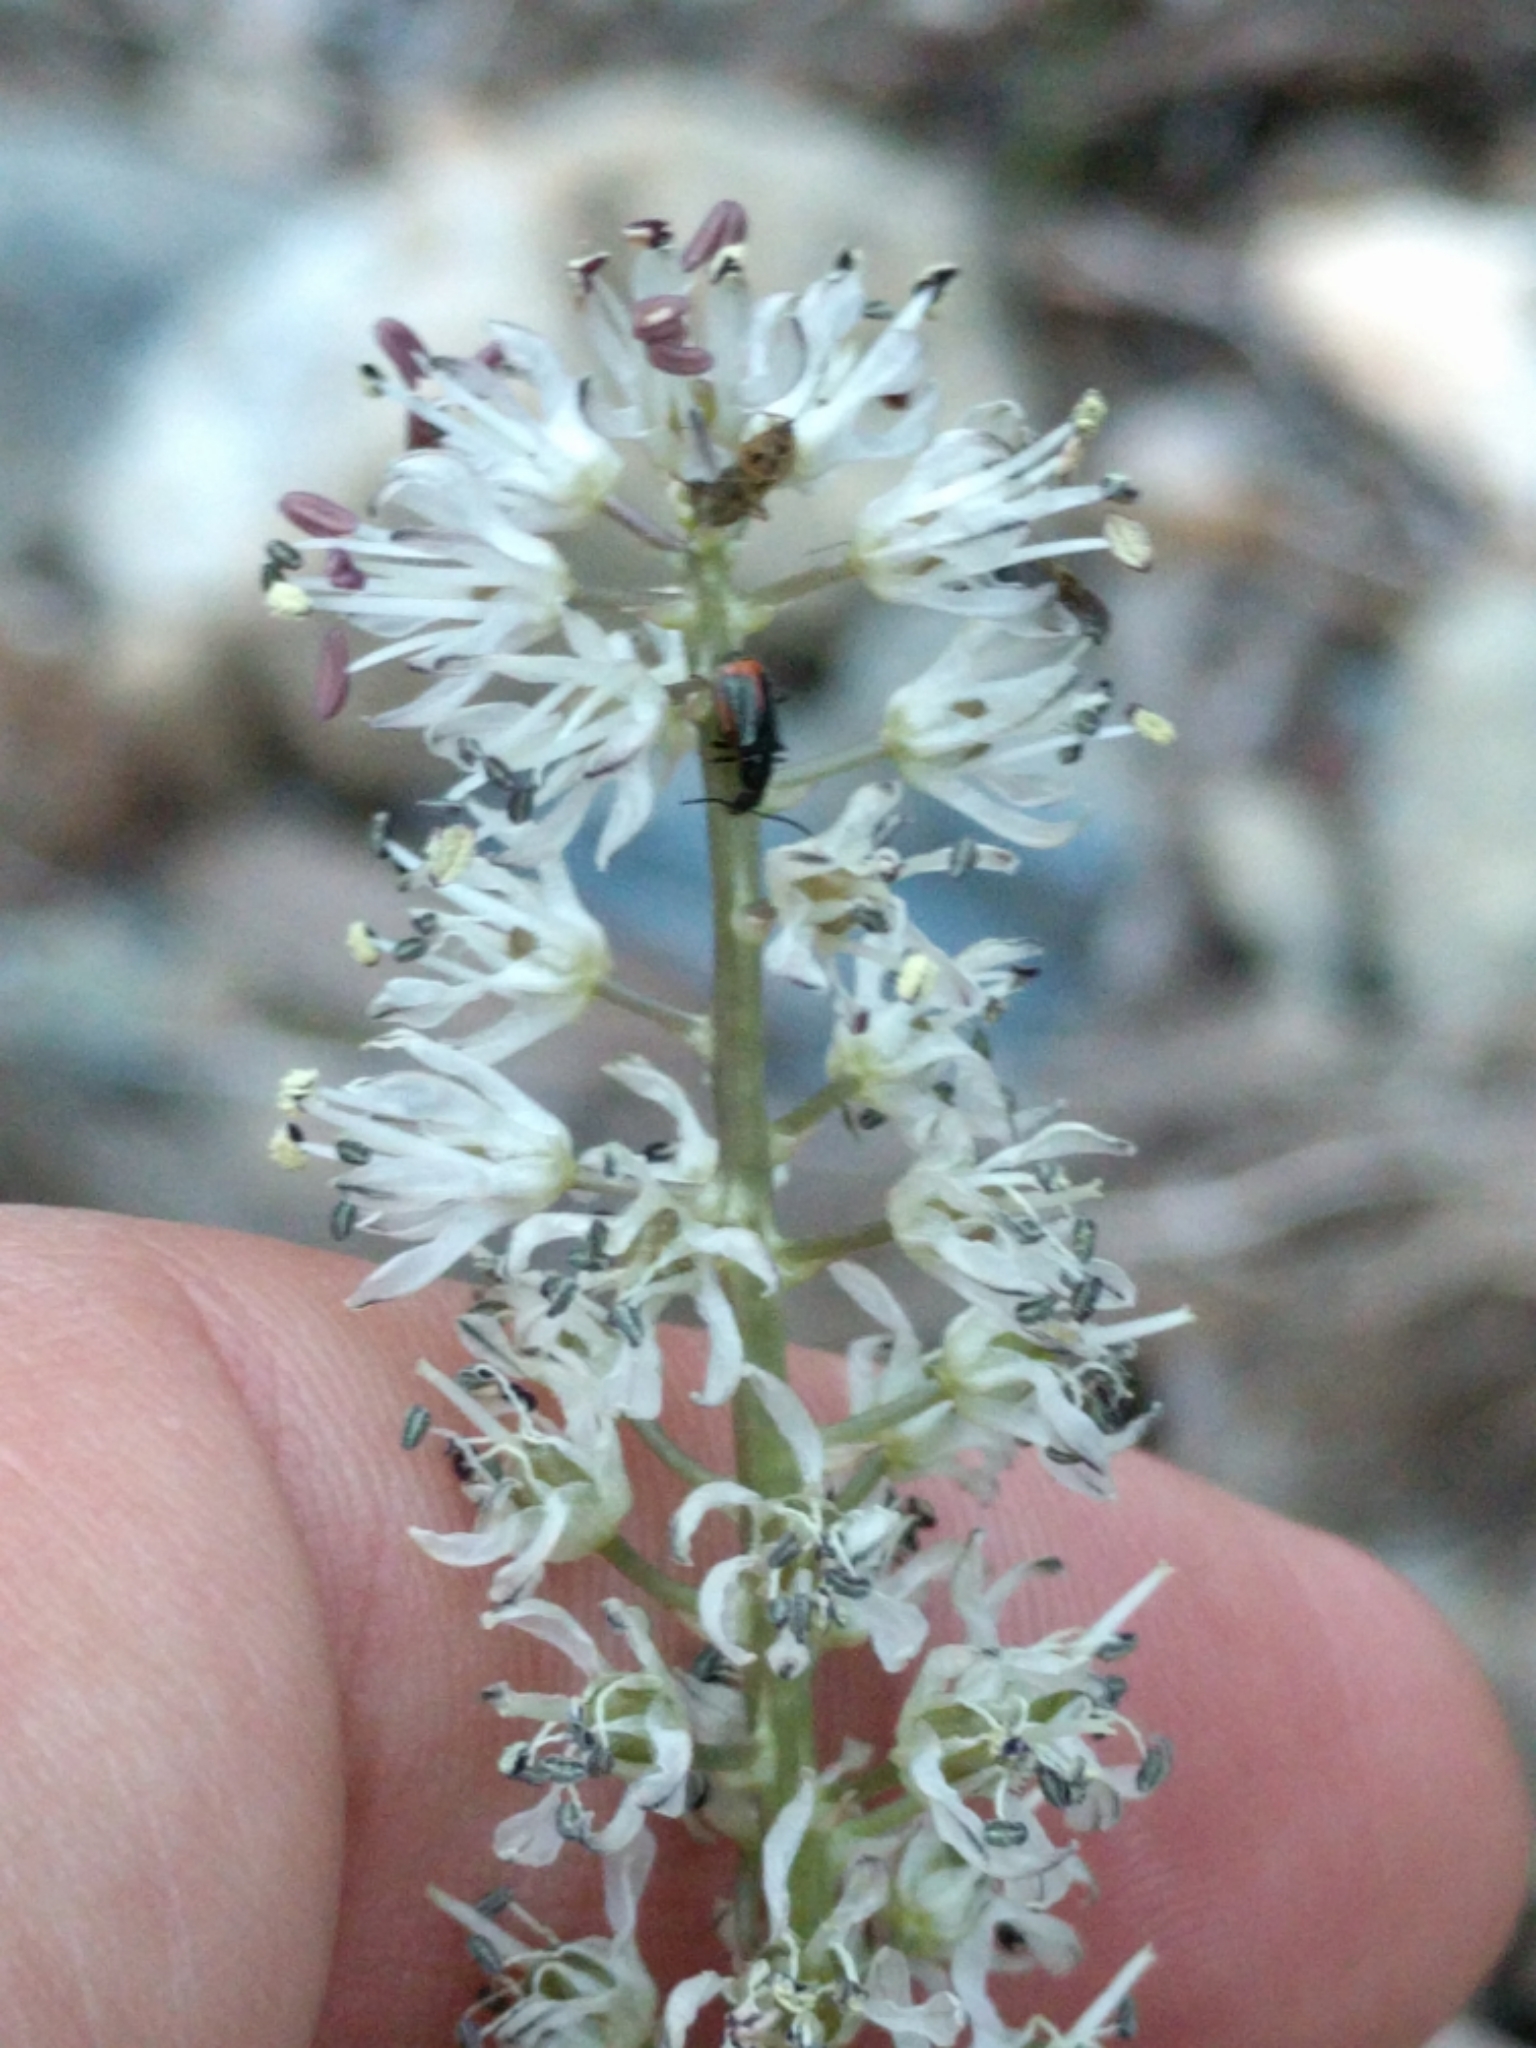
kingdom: Plantae
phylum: Tracheophyta
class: Liliopsida
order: Asparagales
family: Asparagaceae
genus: Hastingsia
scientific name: Hastingsia alba
